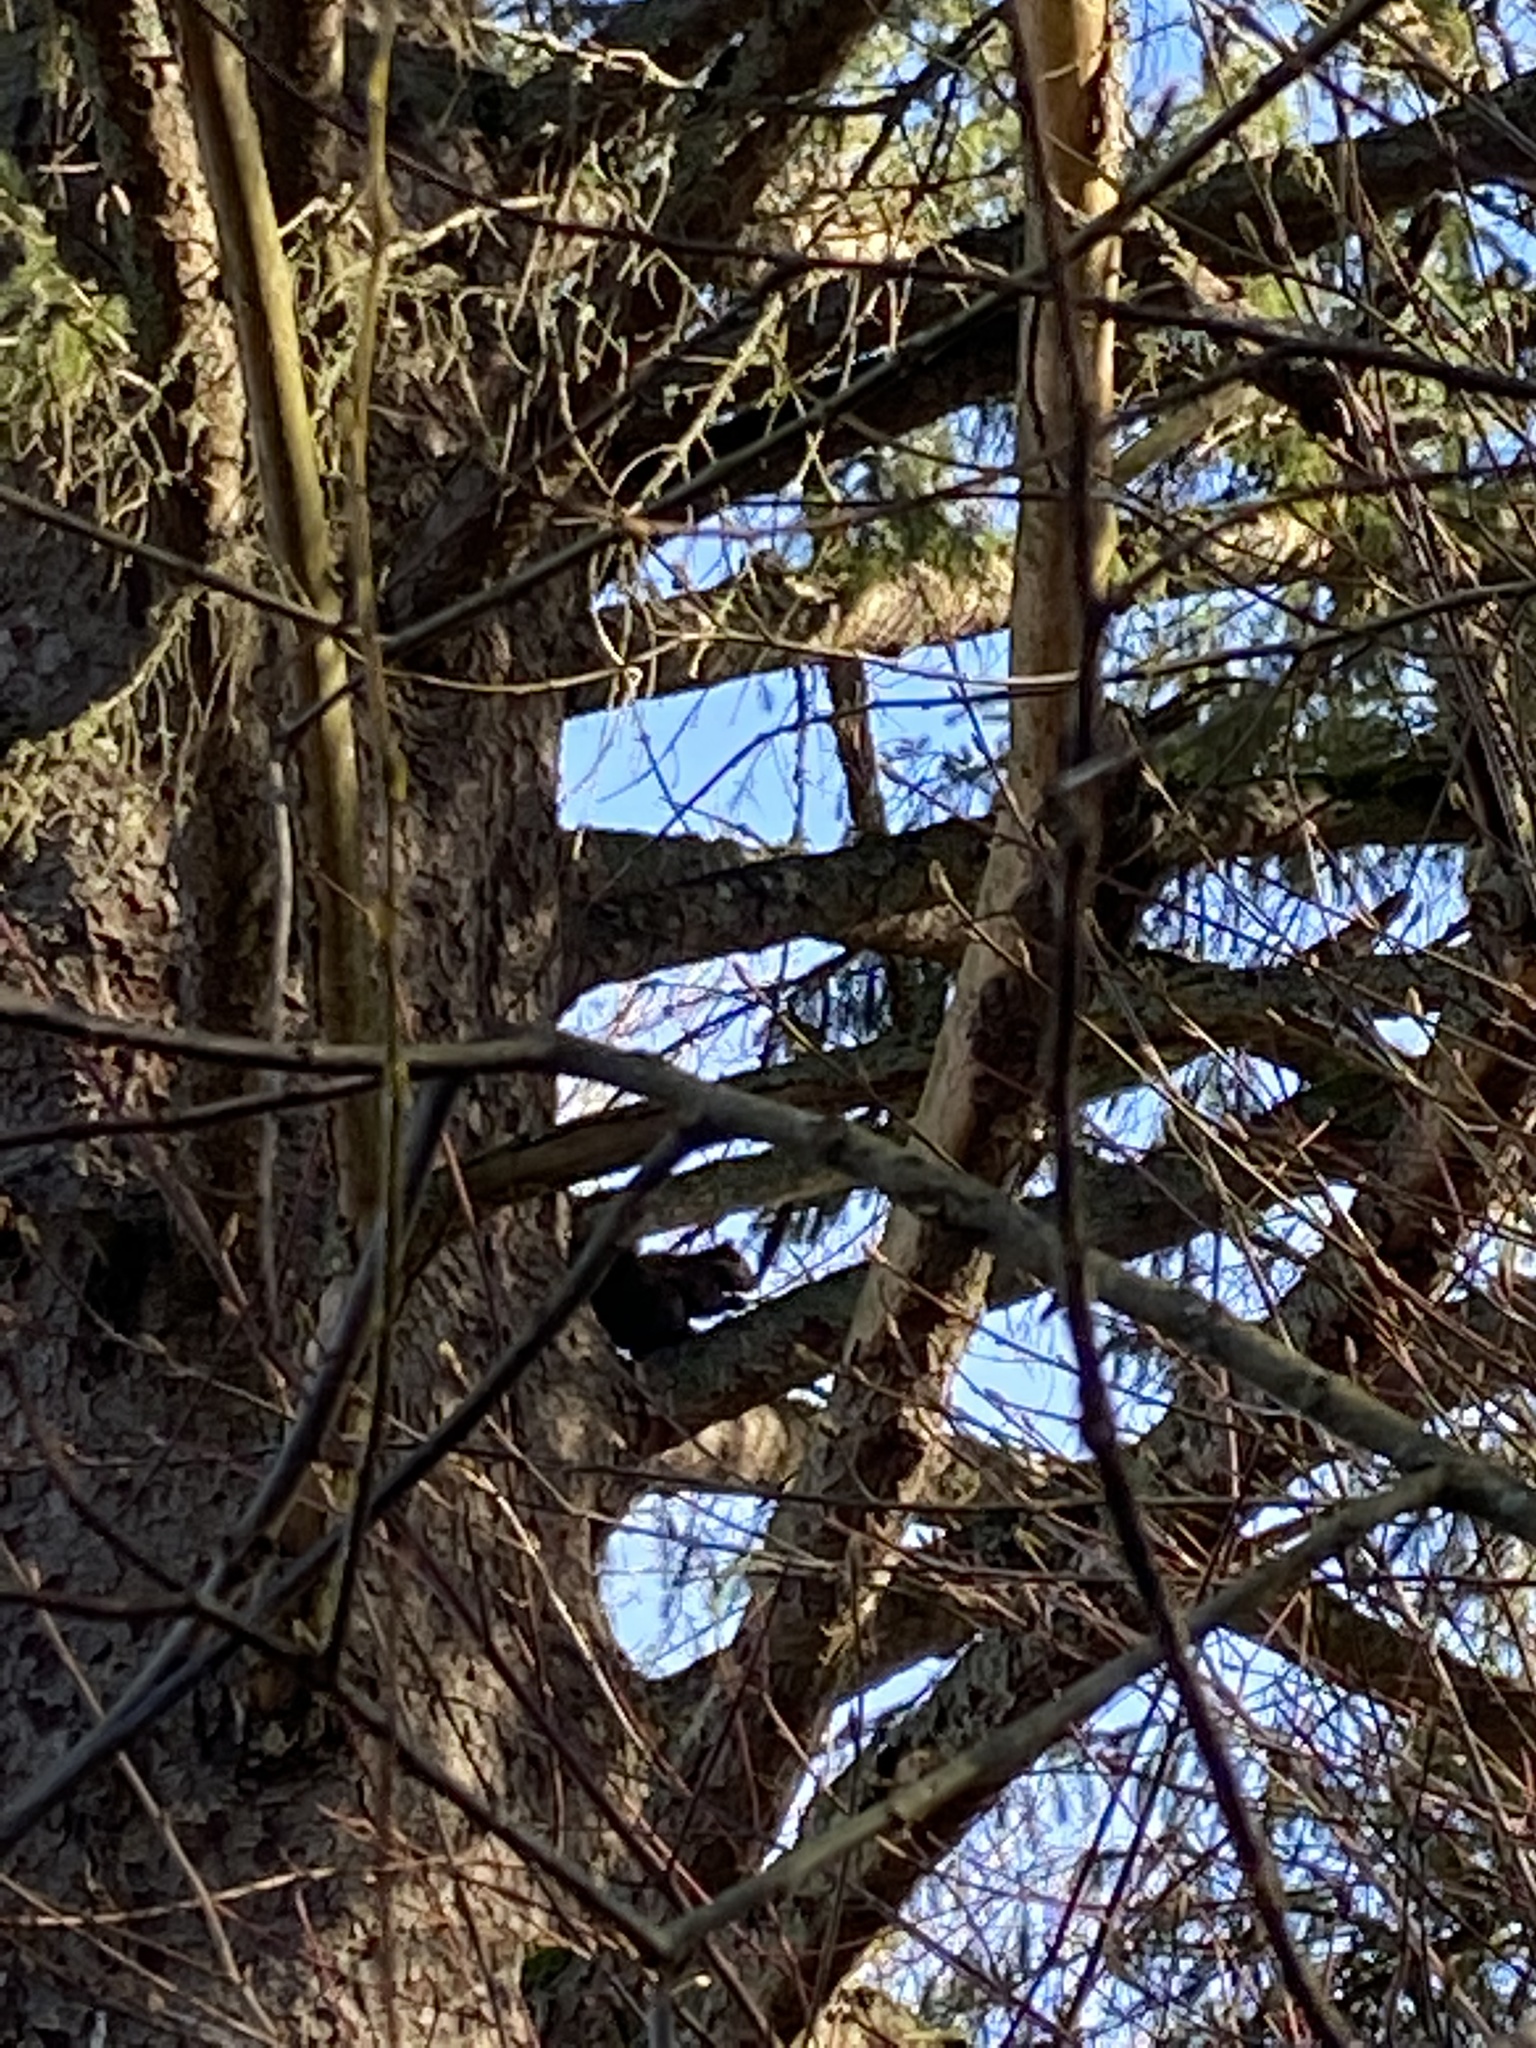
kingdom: Animalia
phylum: Chordata
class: Mammalia
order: Rodentia
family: Sciuridae
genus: Sciurus
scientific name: Sciurus carolinensis
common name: Eastern gray squirrel
